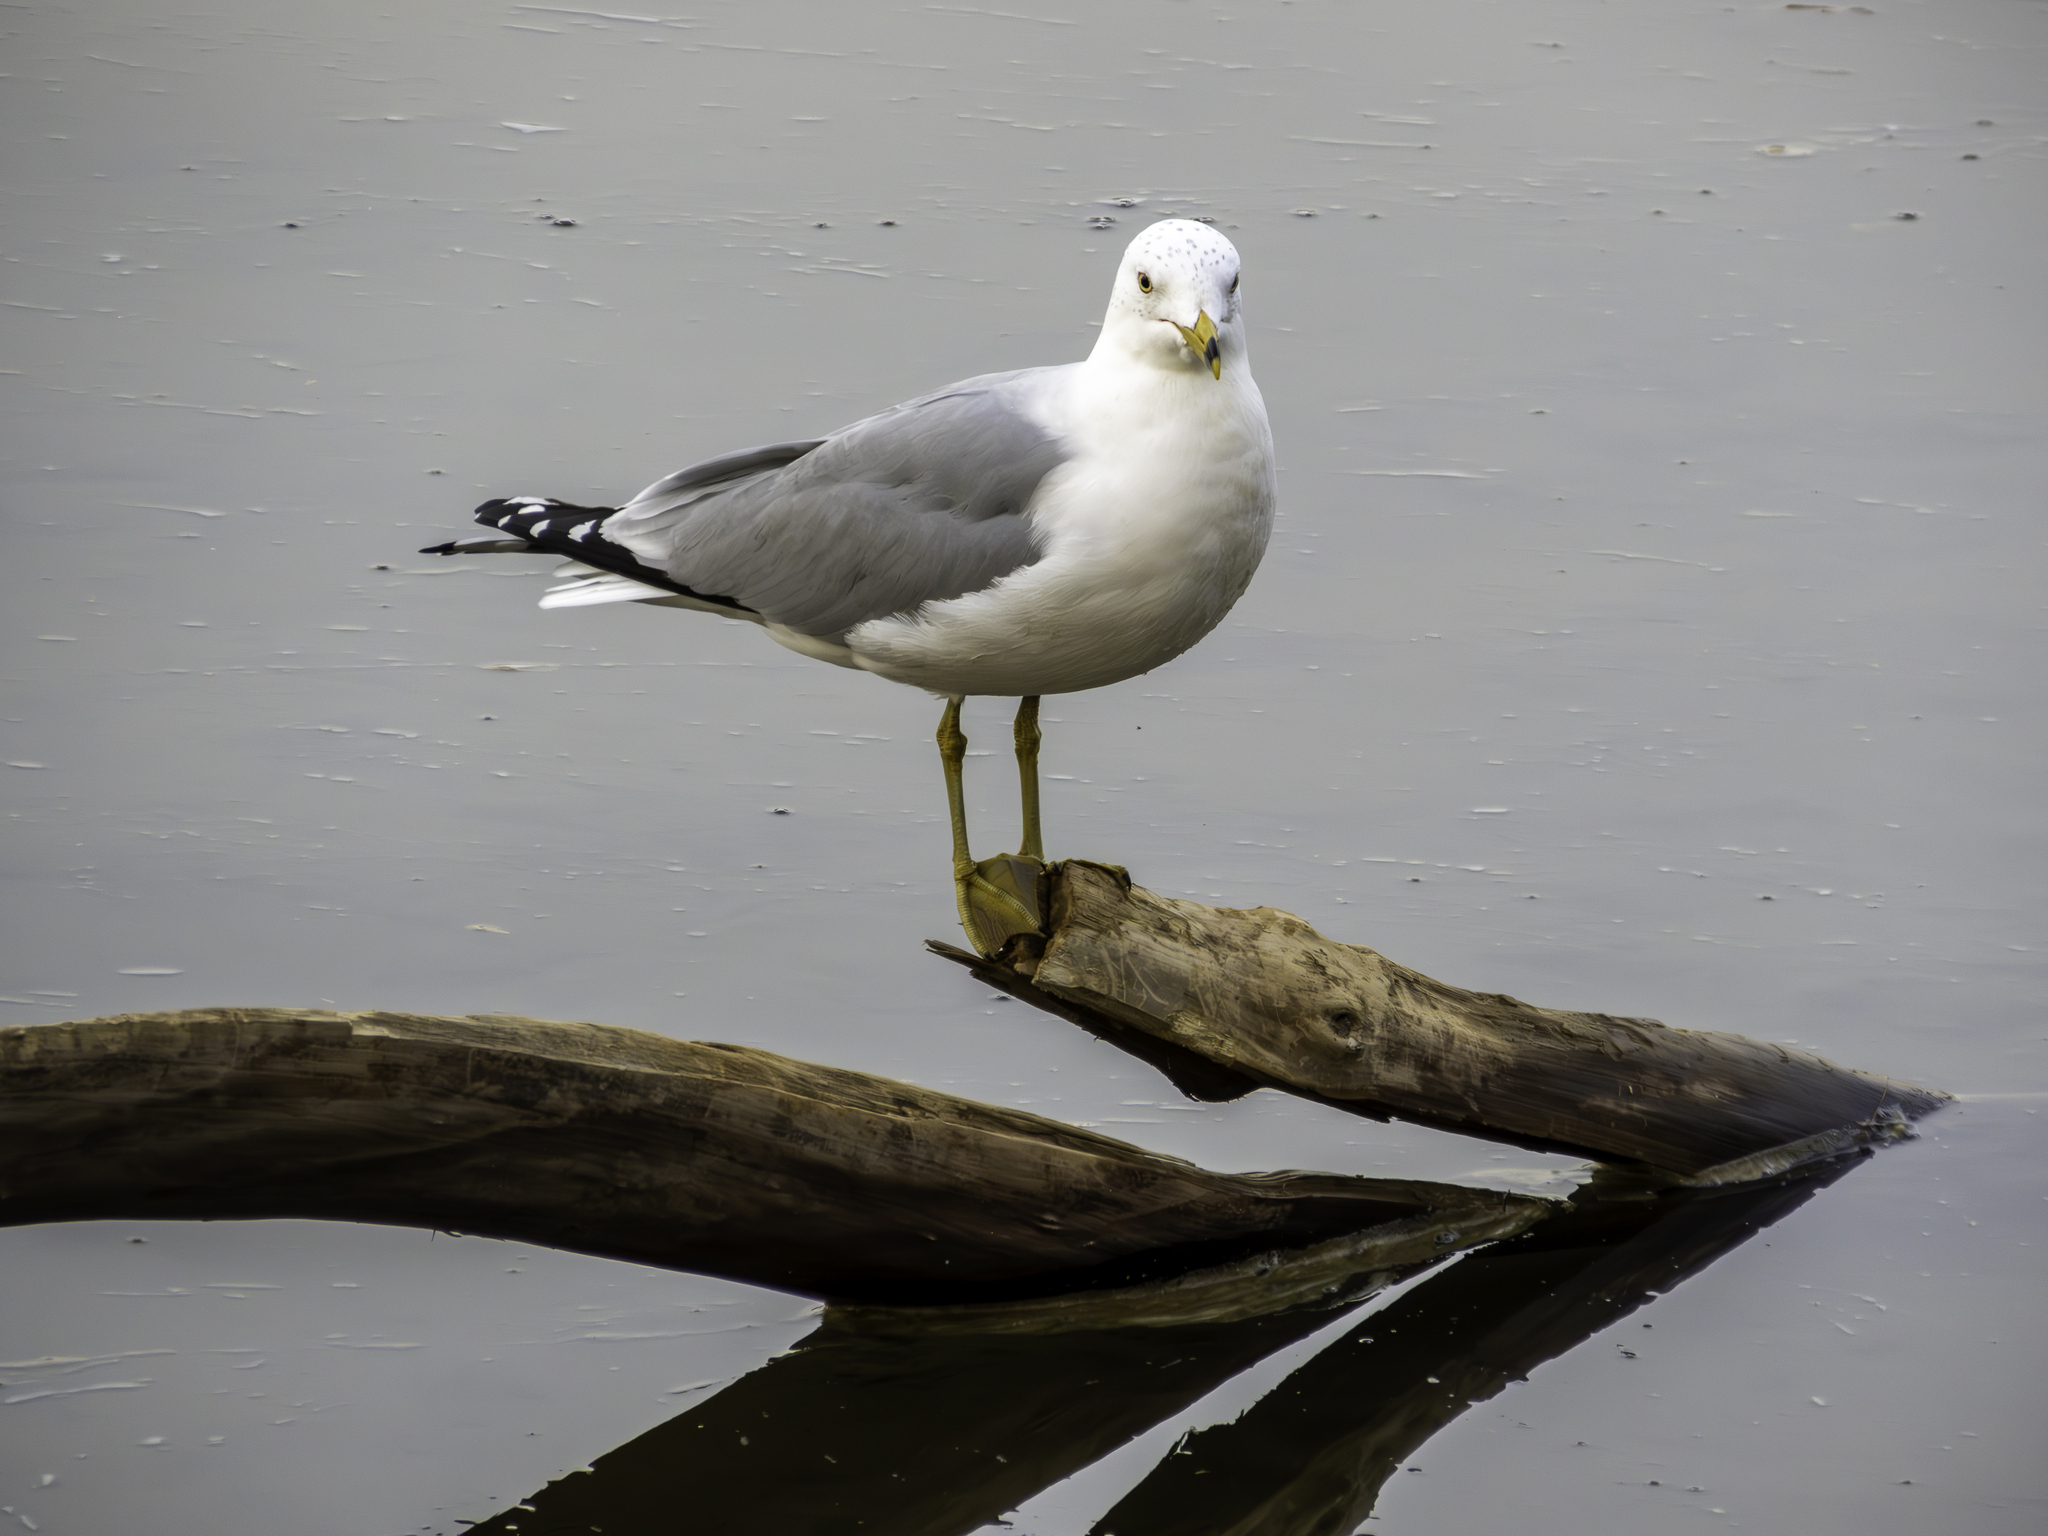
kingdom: Animalia
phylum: Chordata
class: Aves
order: Charadriiformes
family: Laridae
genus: Larus
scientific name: Larus delawarensis
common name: Ring-billed gull
